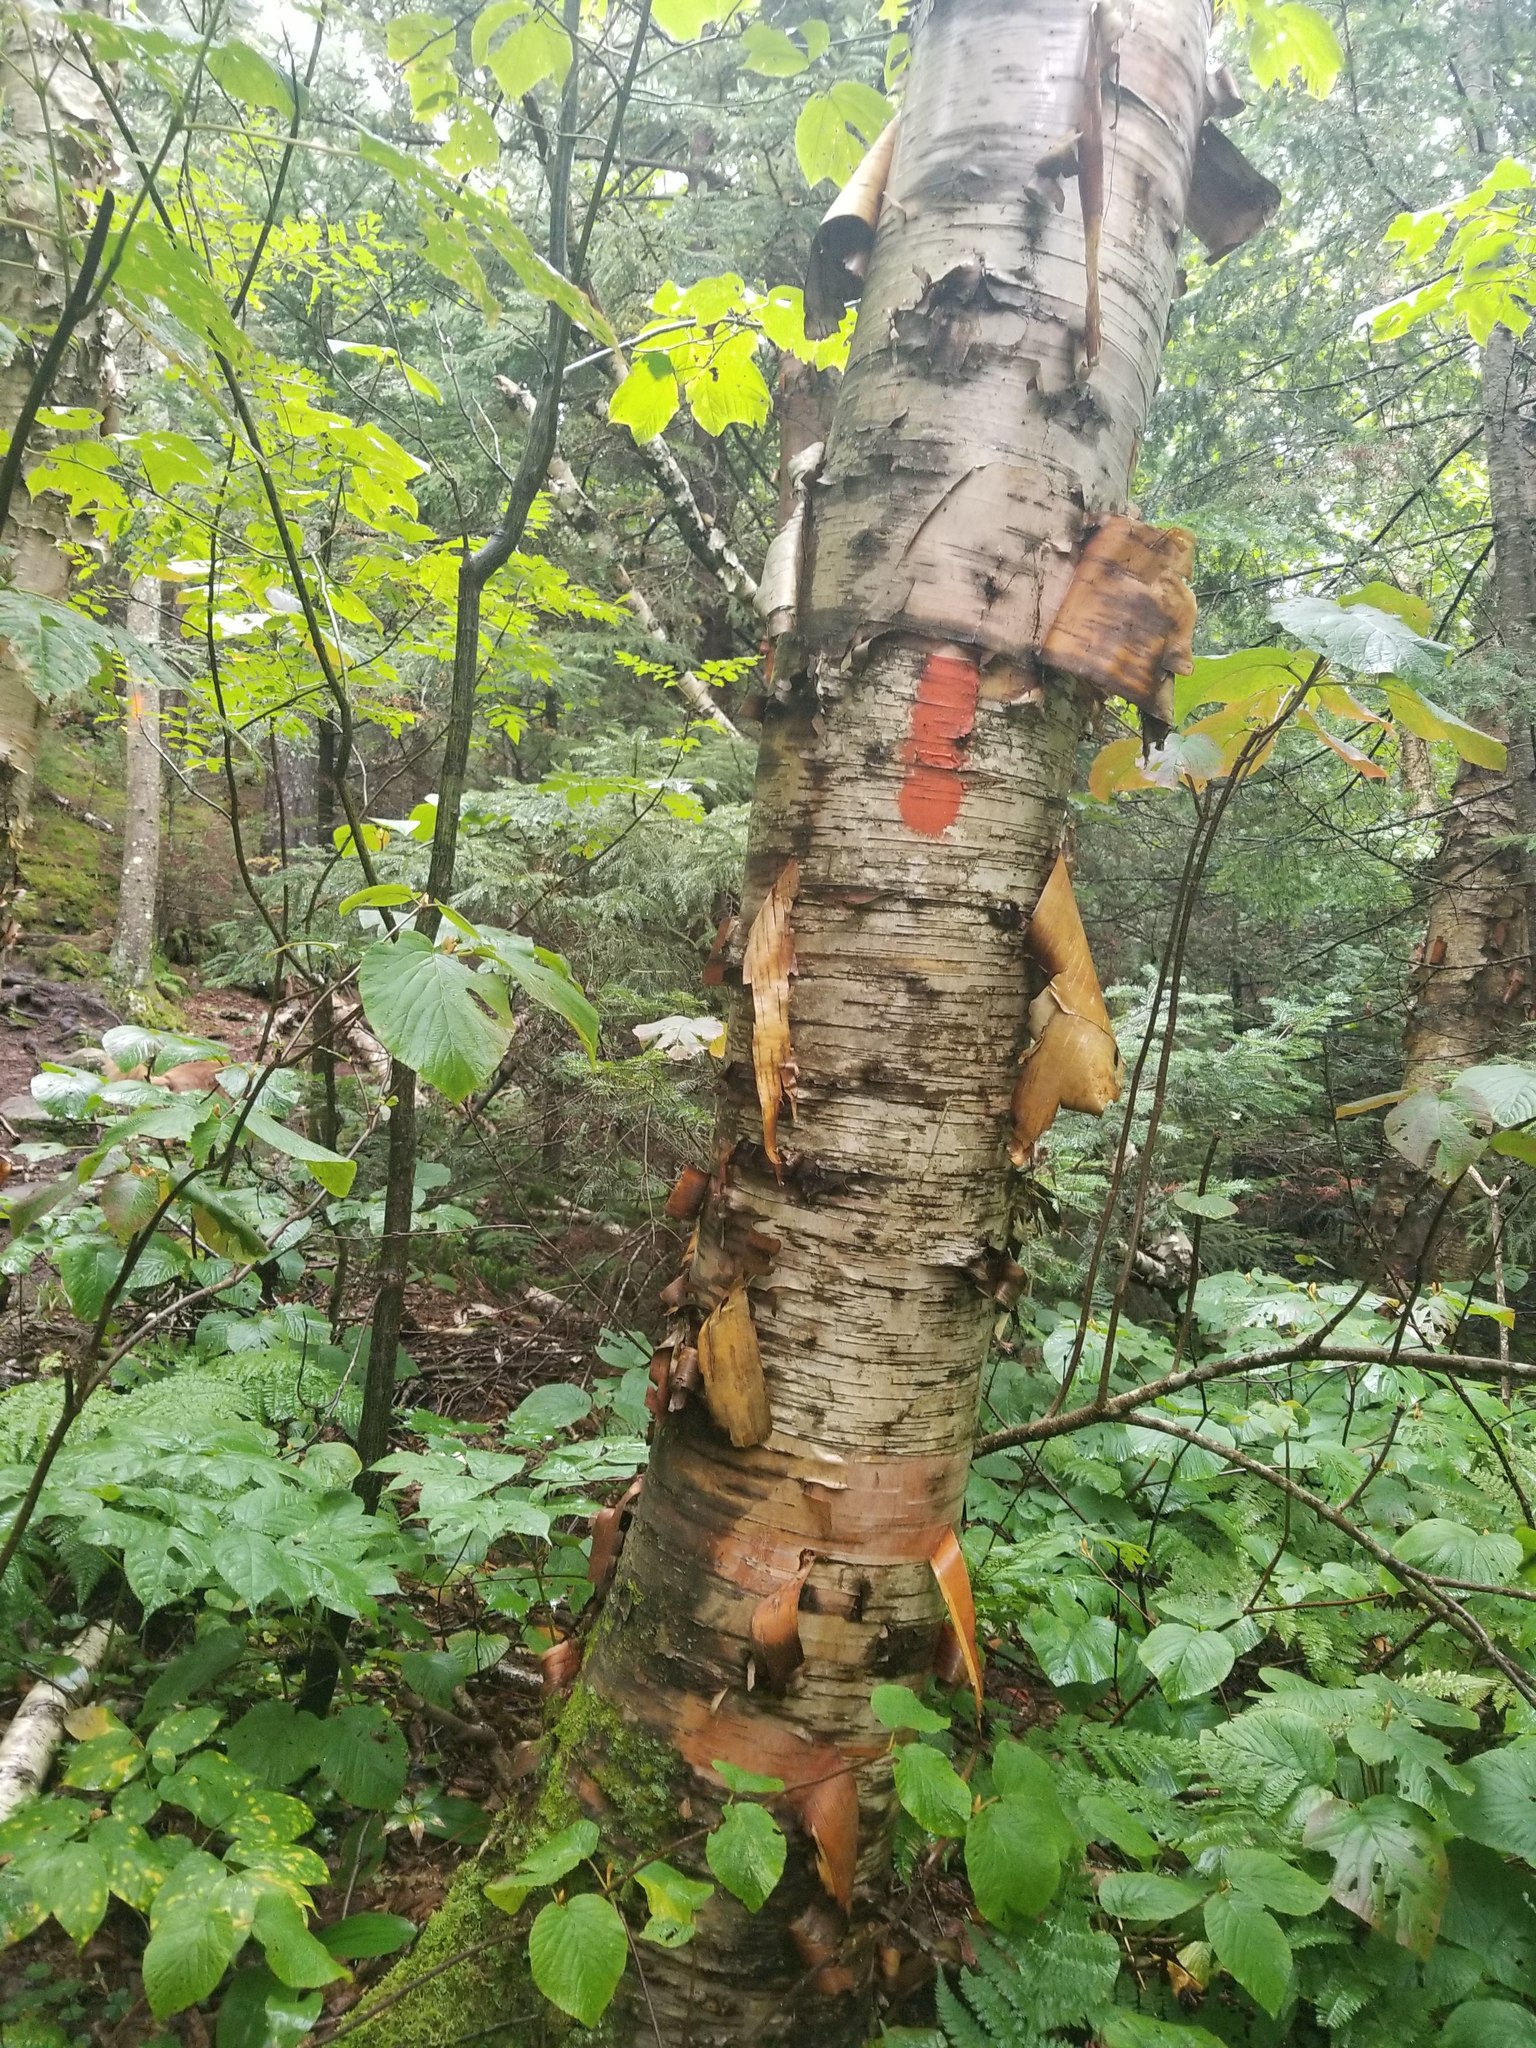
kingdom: Plantae
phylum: Tracheophyta
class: Magnoliopsida
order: Fagales
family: Betulaceae
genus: Betula
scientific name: Betula cordifolia
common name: Mountain white birch
